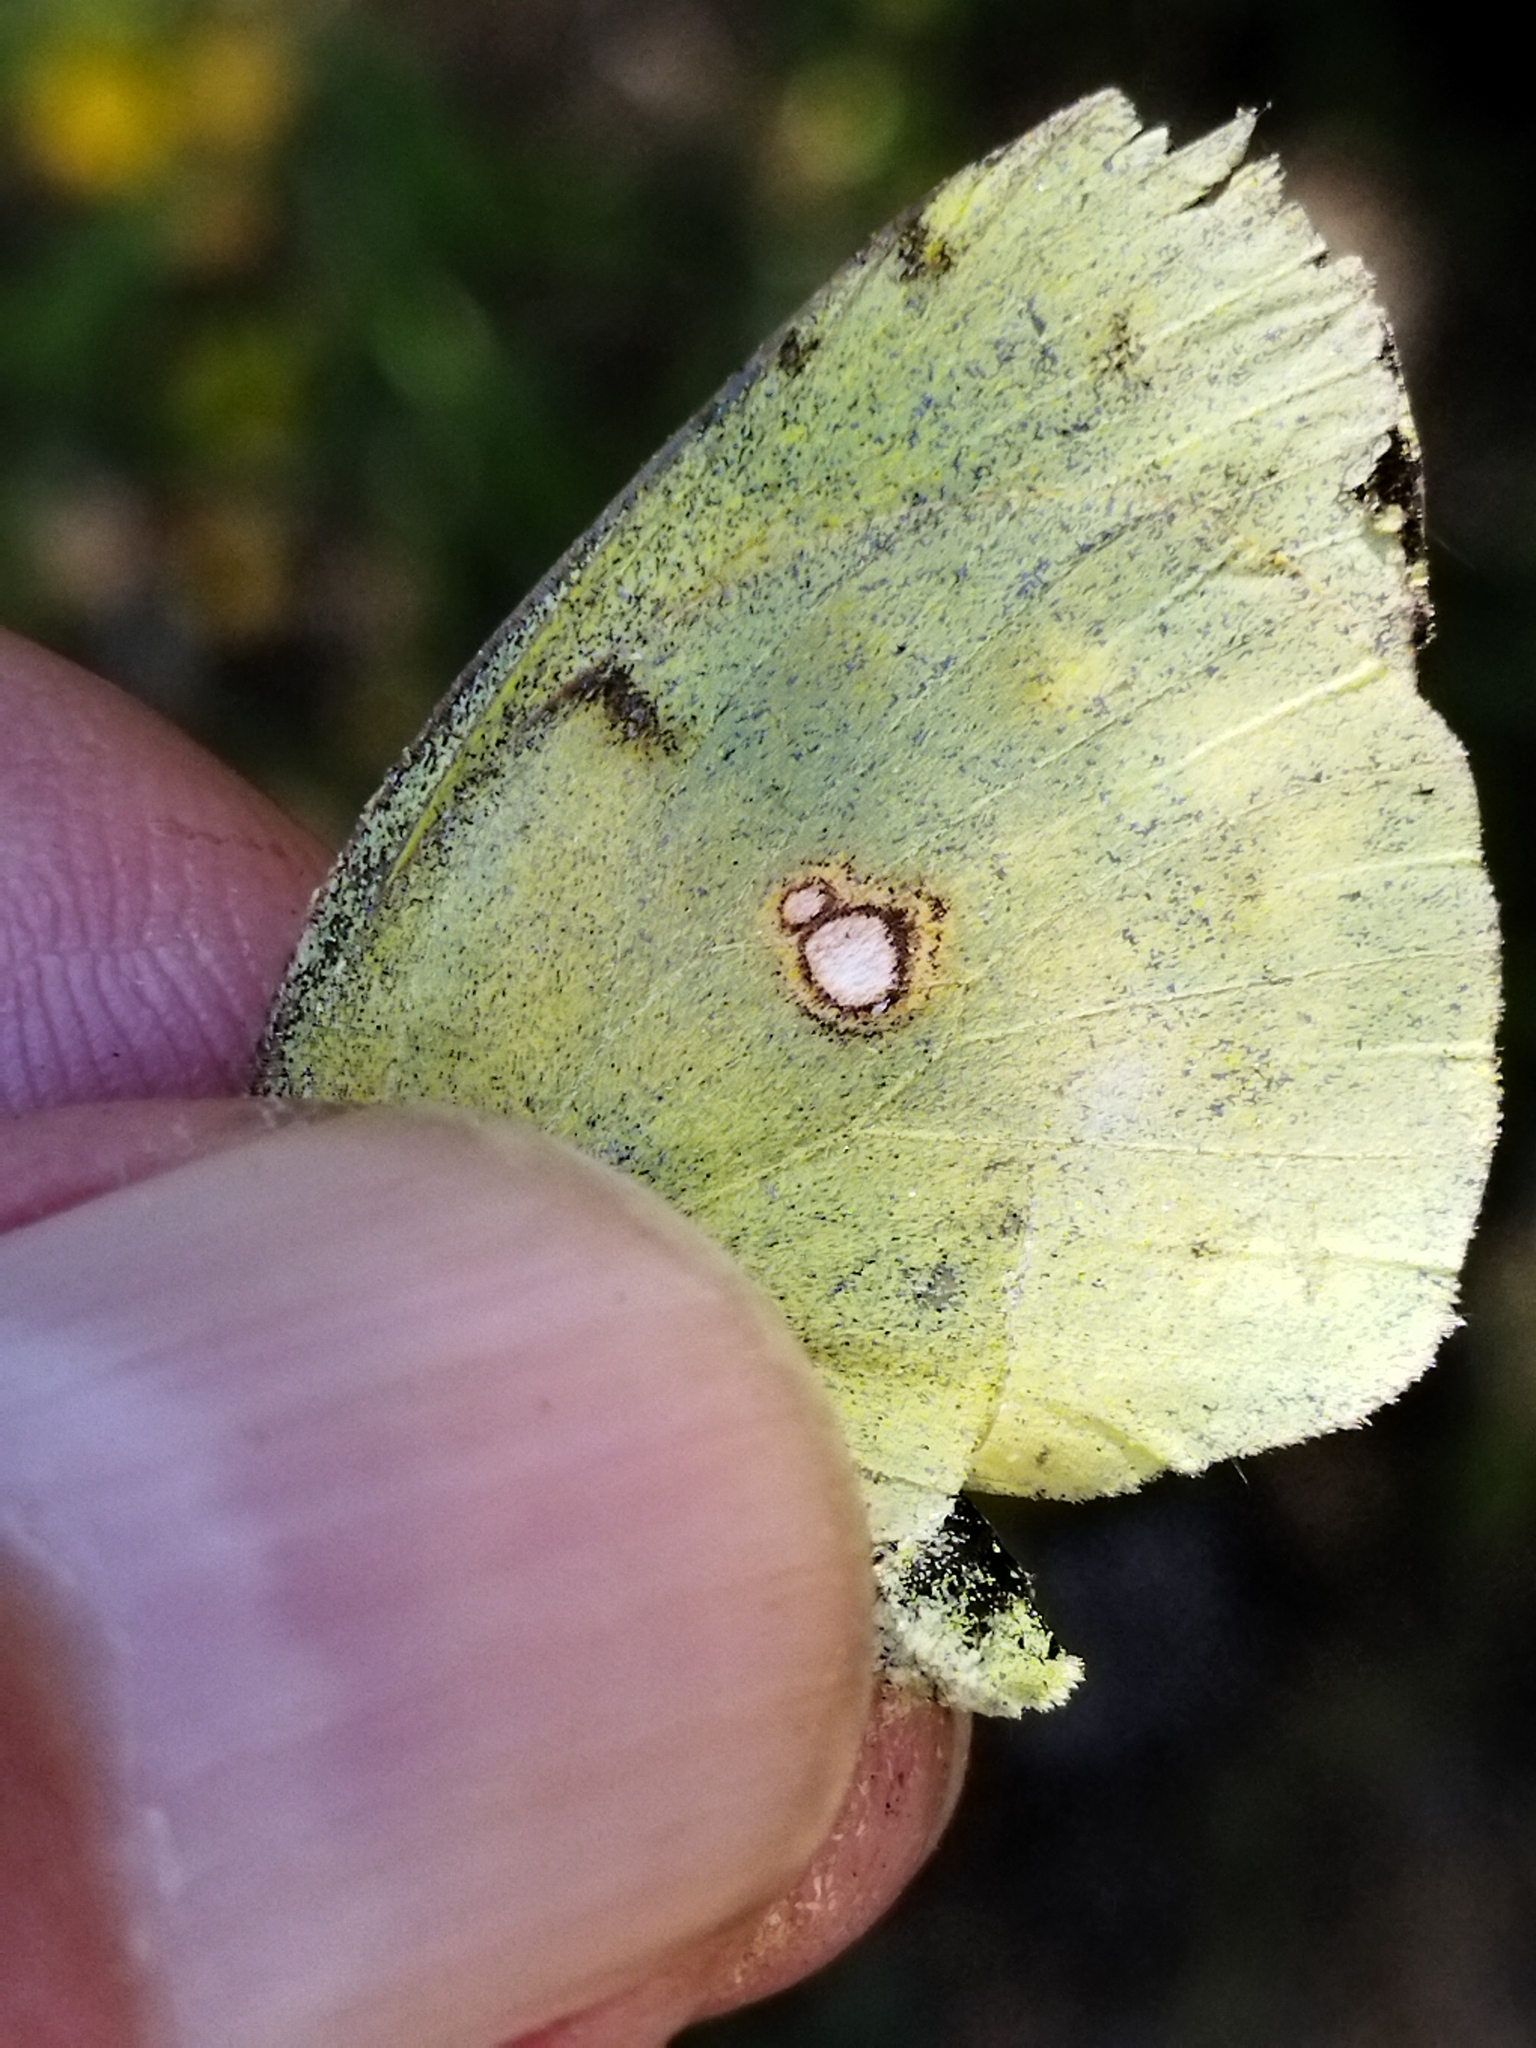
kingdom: Animalia
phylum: Arthropoda
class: Insecta
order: Lepidoptera
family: Pieridae
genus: Colias
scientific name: Colias croceus
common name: Clouded yellow
